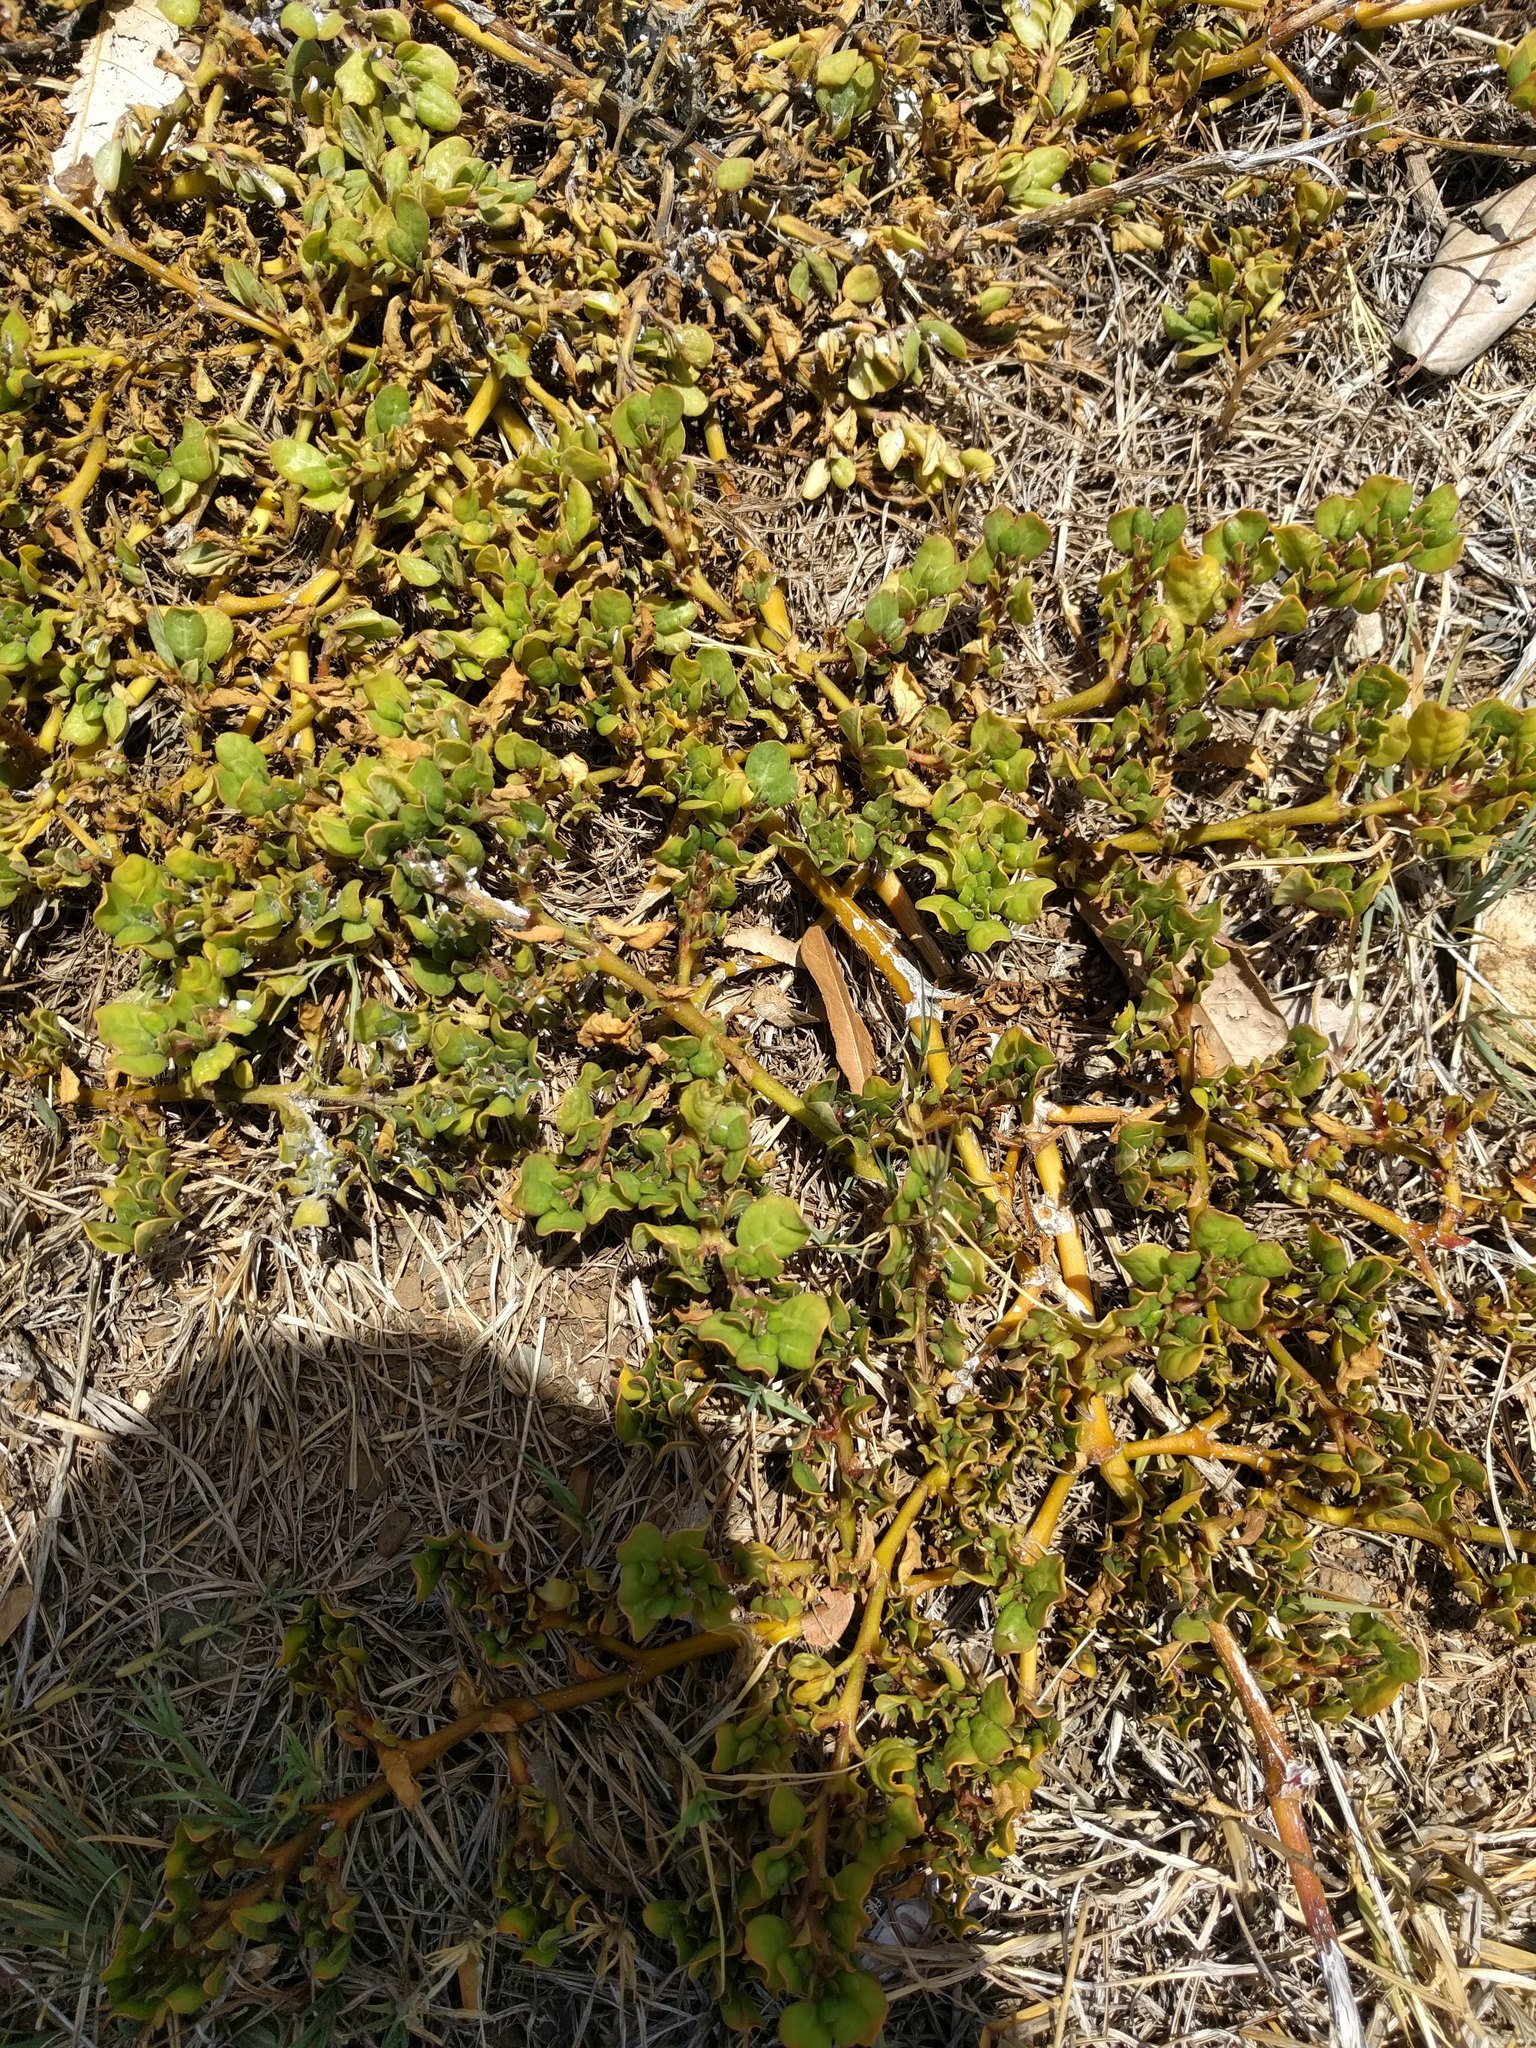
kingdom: Plantae
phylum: Tracheophyta
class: Magnoliopsida
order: Caryophyllales
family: Aizoaceae
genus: Trianthema
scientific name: Trianthema portulacastrum
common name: Desert horsepurslane
